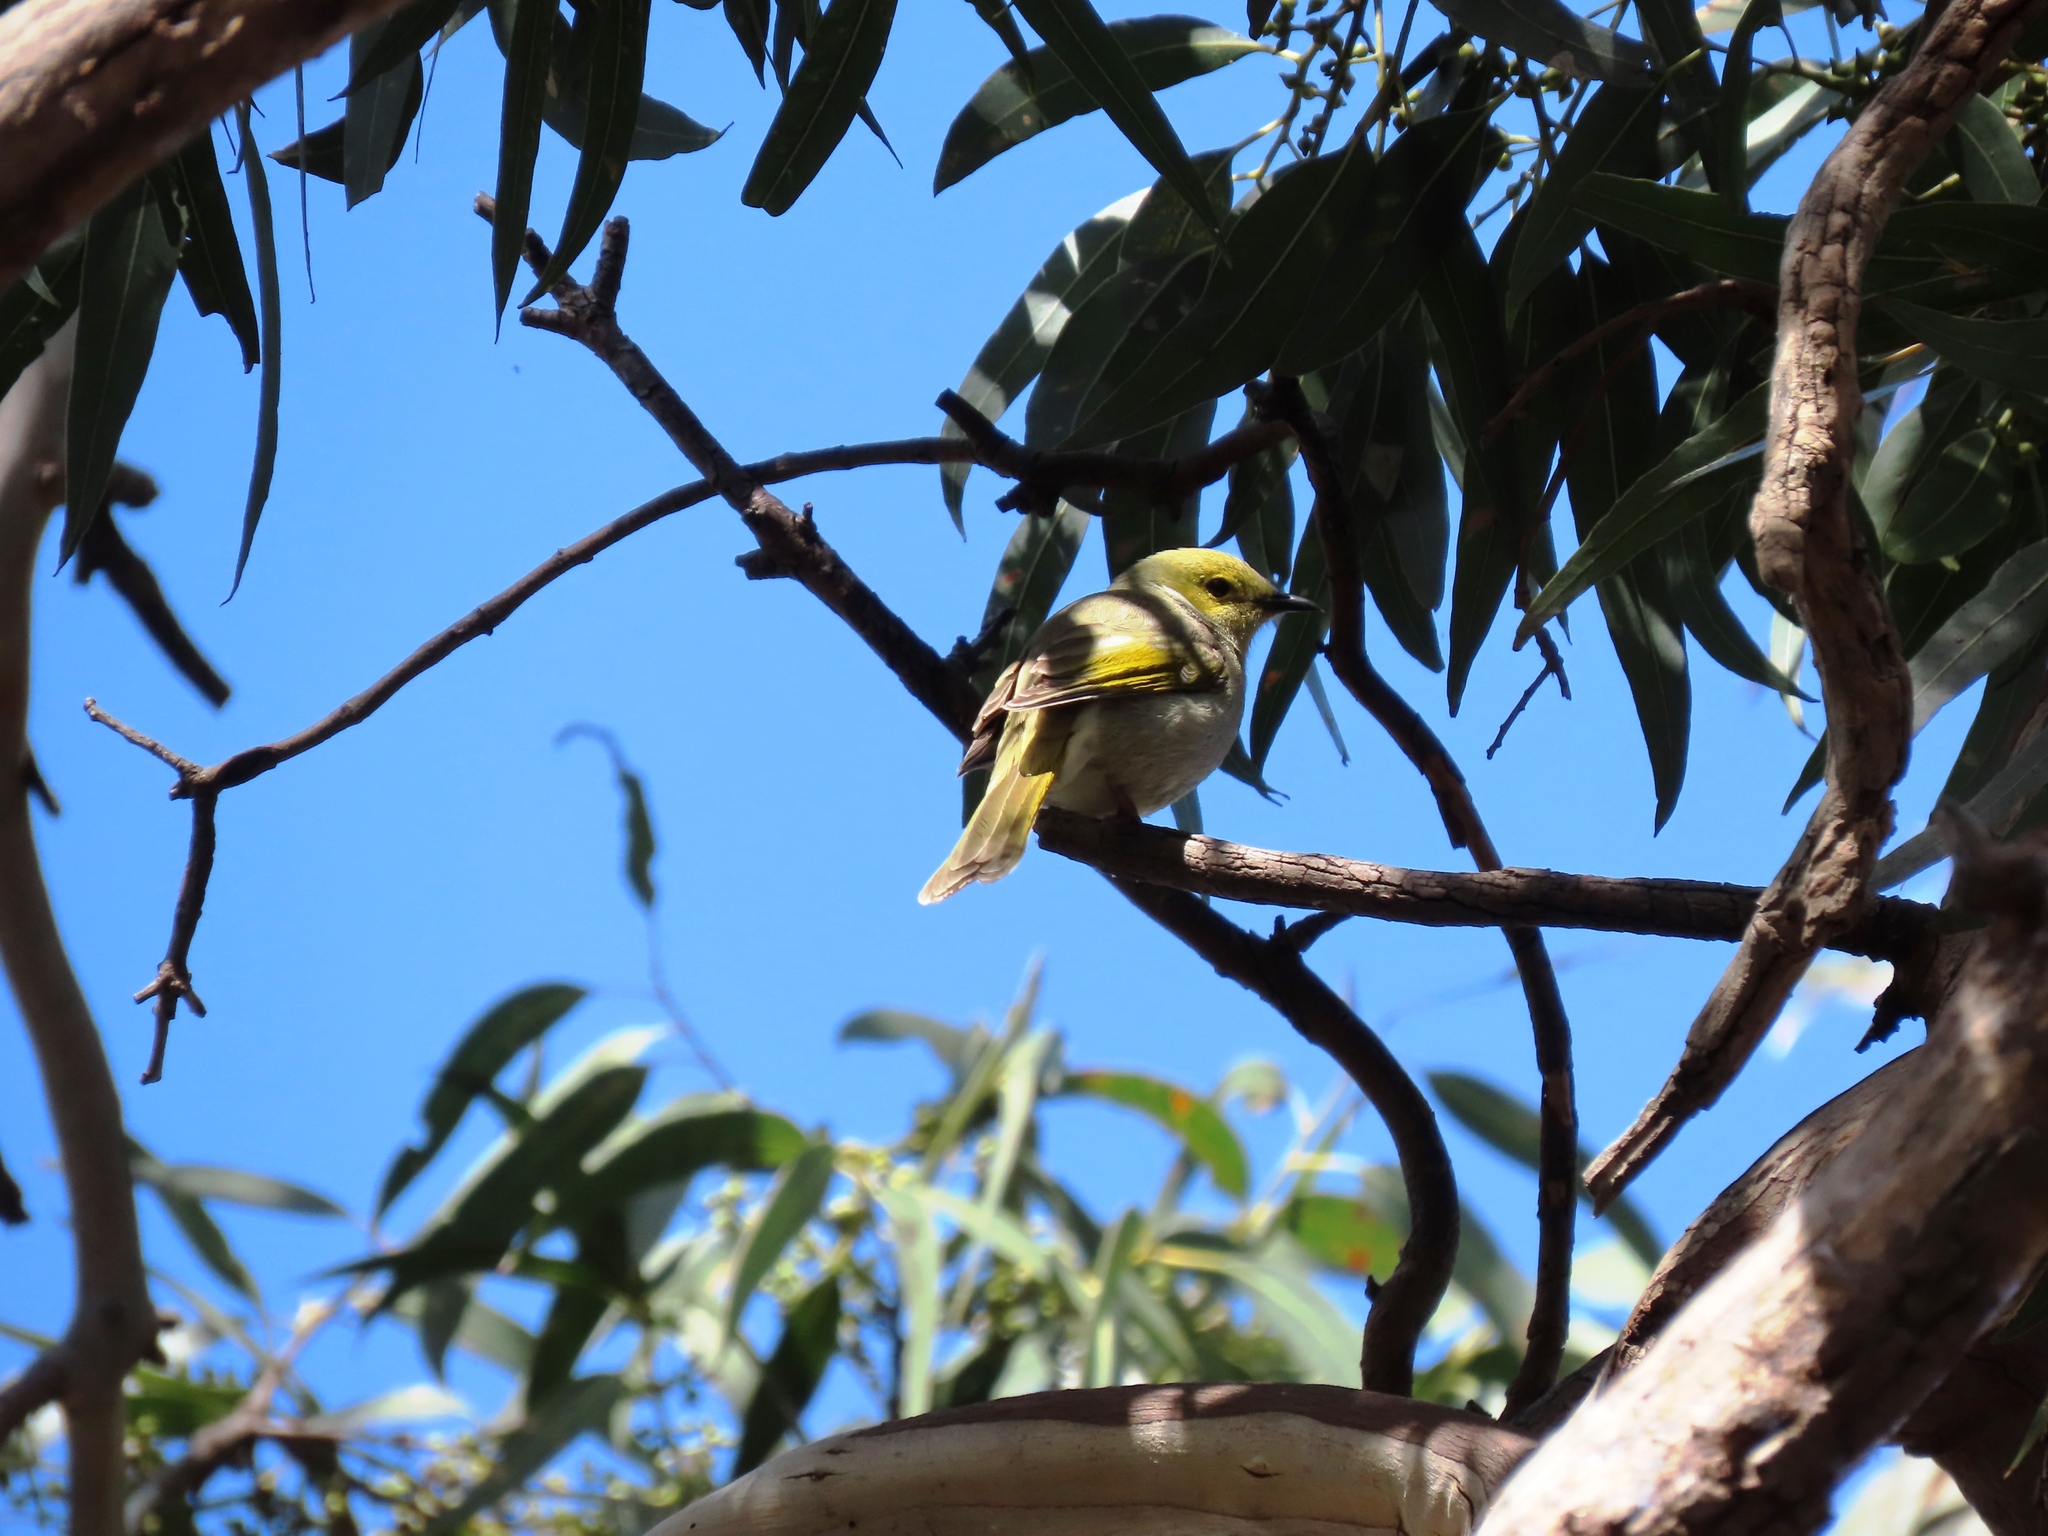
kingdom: Animalia
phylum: Chordata
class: Aves
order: Passeriformes
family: Meliphagidae
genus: Ptilotula
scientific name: Ptilotula penicillata
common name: White-plumed honeyeater
